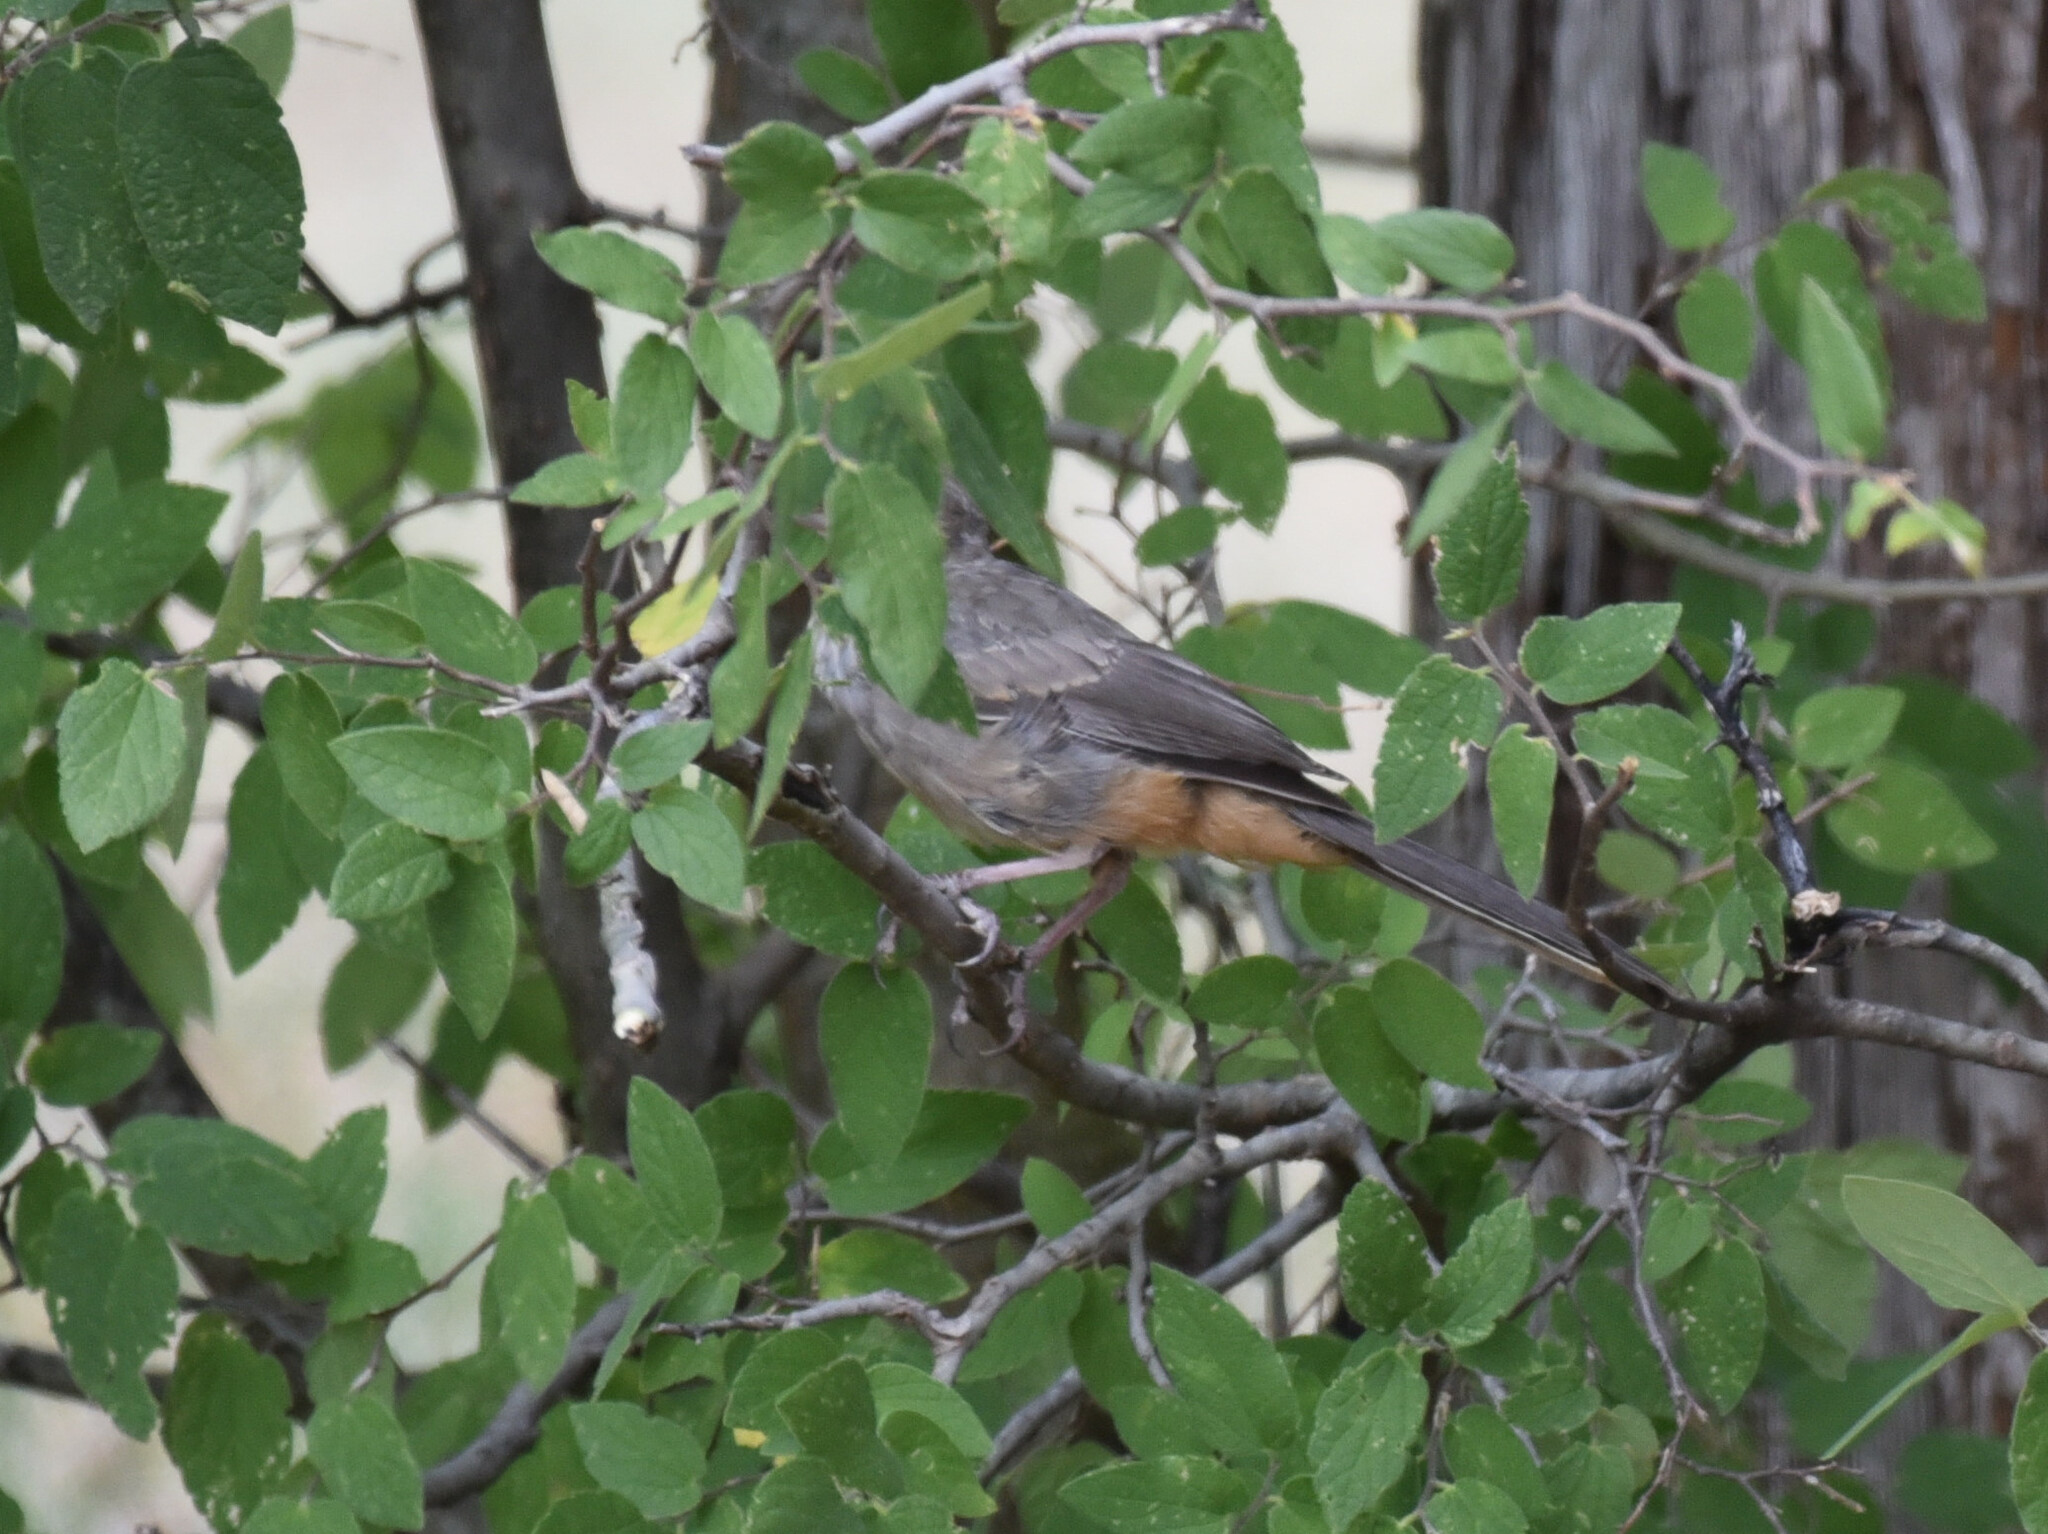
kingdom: Animalia
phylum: Chordata
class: Aves
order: Passeriformes
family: Passerellidae
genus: Melozone
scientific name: Melozone fusca
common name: Canyon towhee
